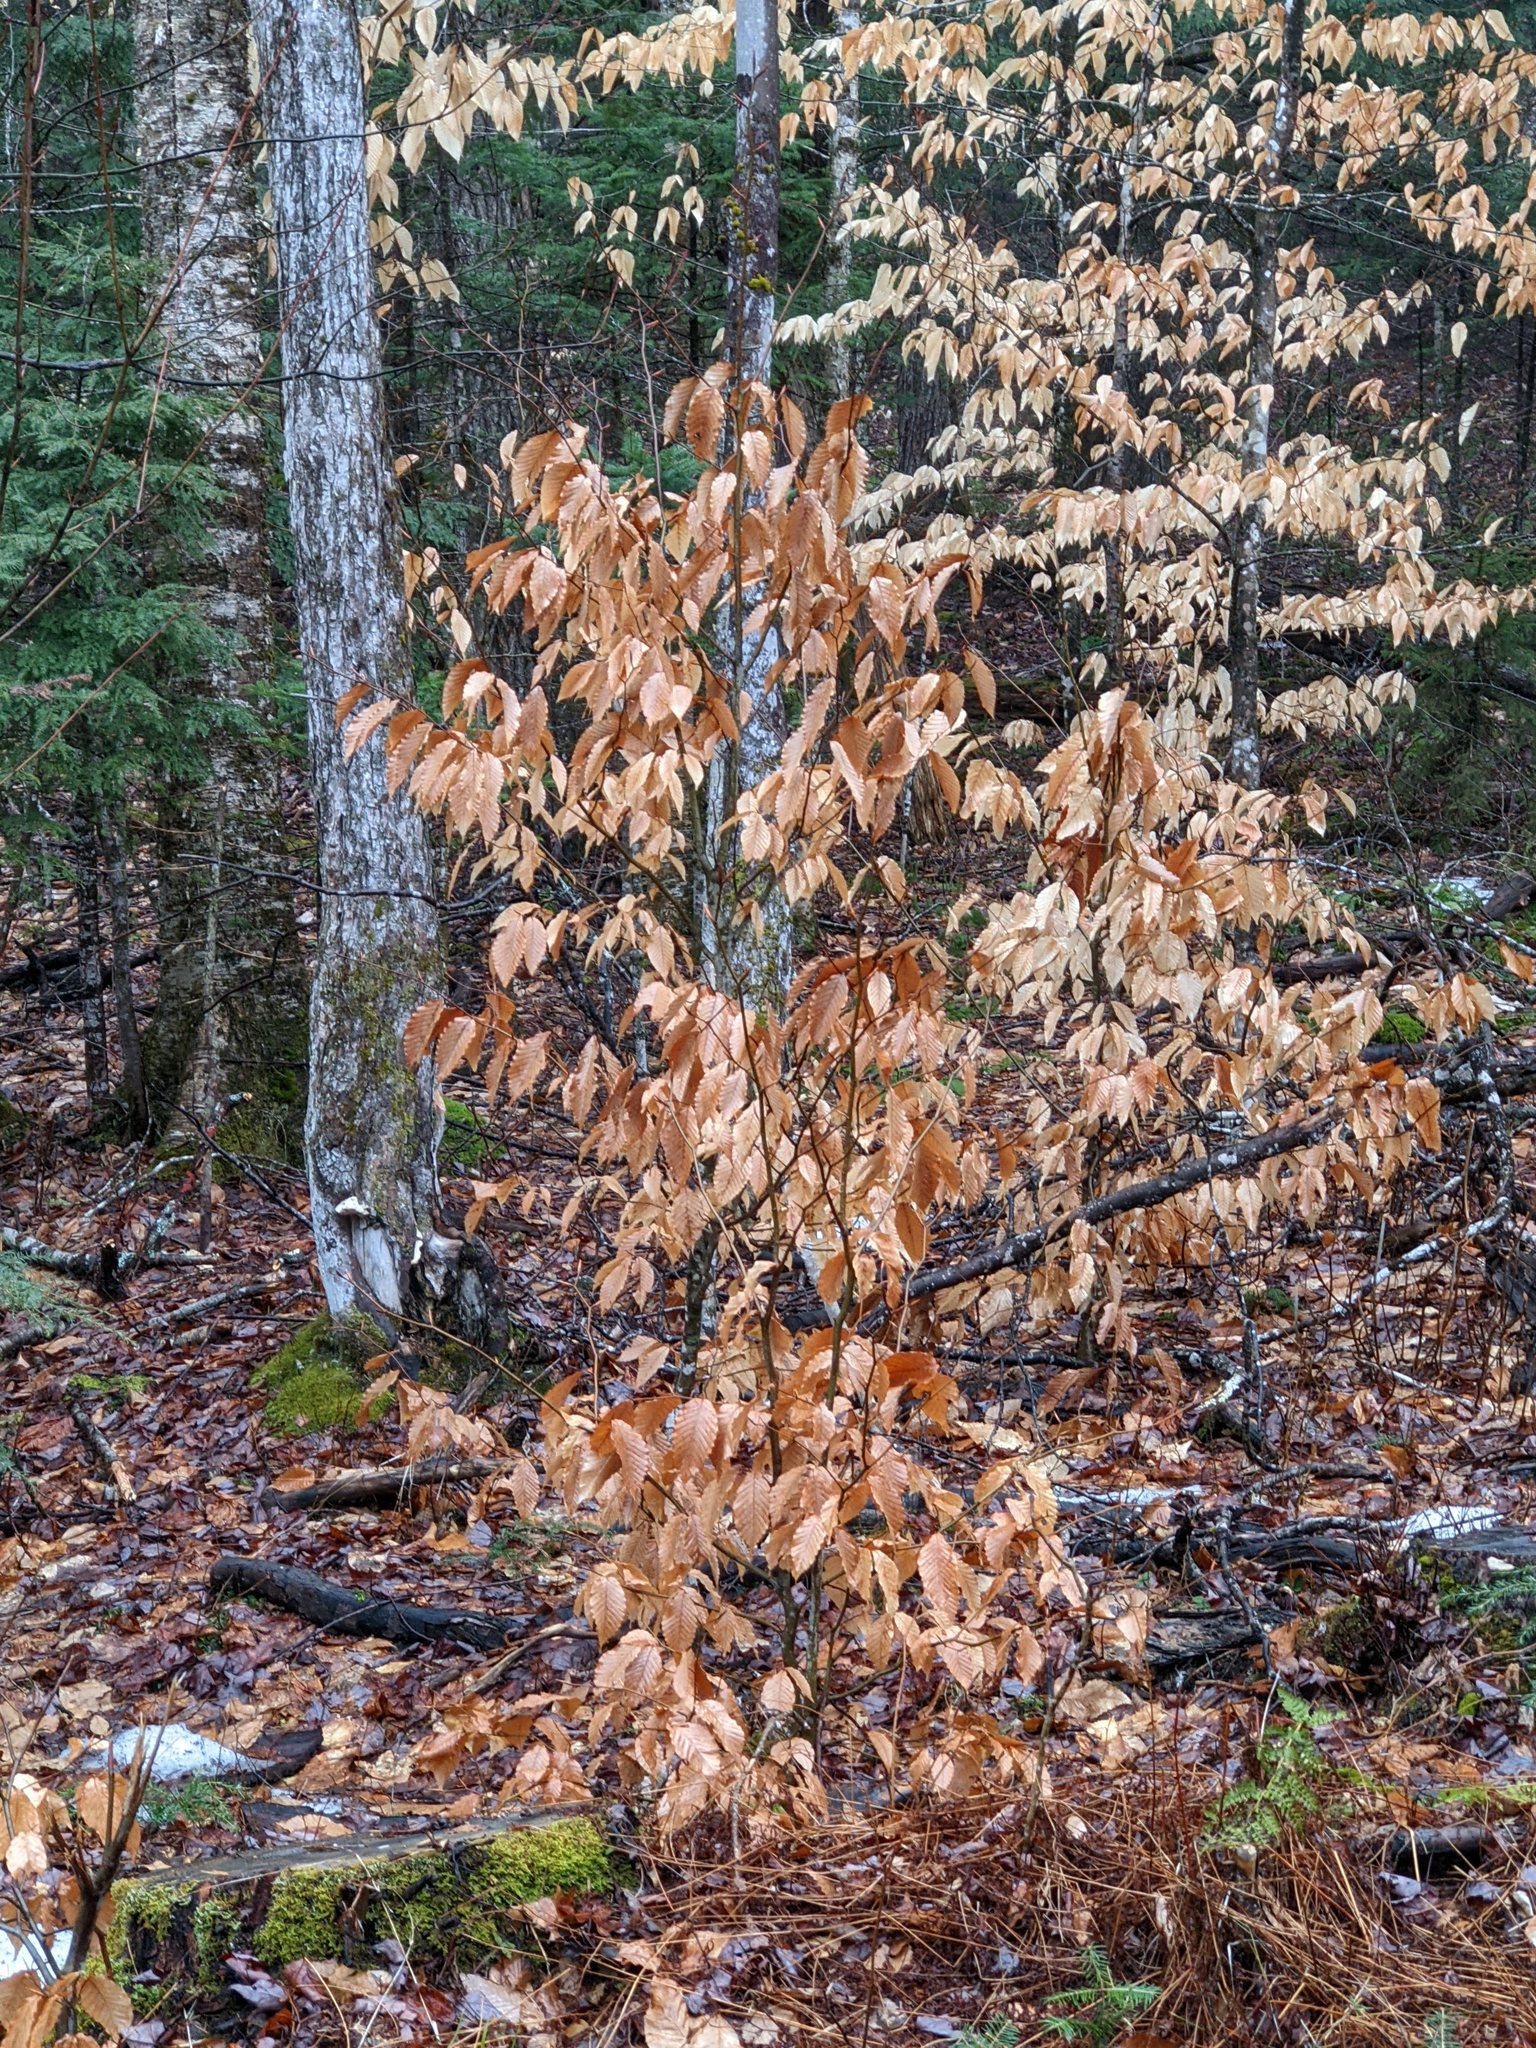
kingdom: Plantae
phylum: Tracheophyta
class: Magnoliopsida
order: Fagales
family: Fagaceae
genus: Fagus
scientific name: Fagus grandifolia
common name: American beech
